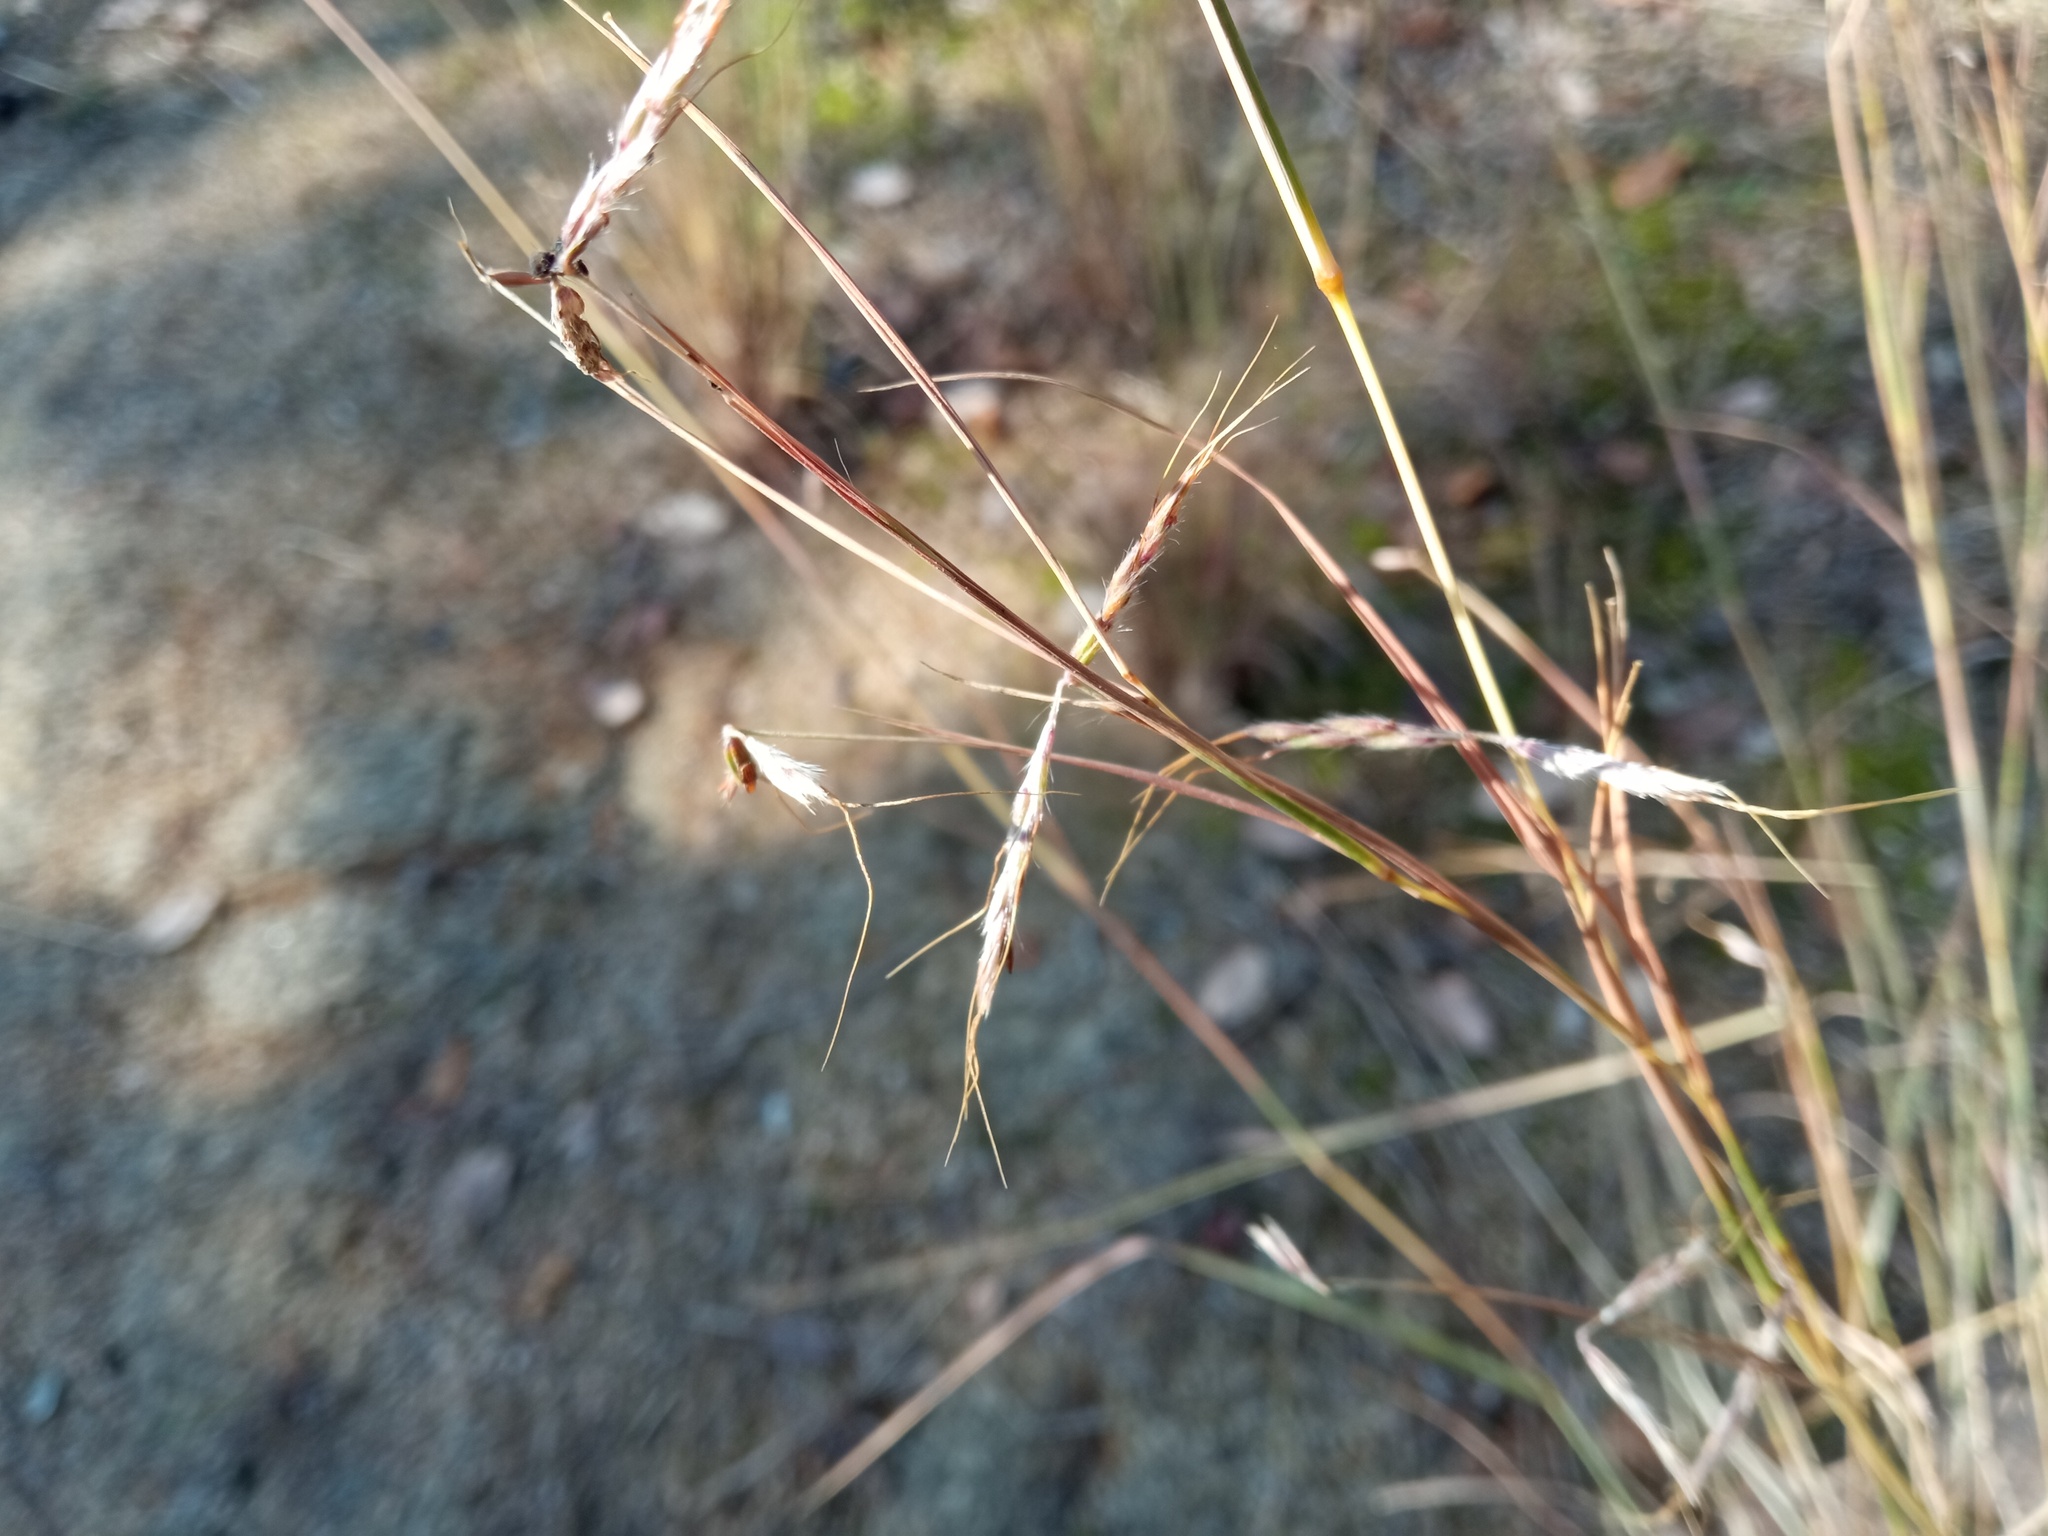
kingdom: Plantae
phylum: Tracheophyta
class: Liliopsida
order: Poales
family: Poaceae
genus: Hyparrhenia
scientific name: Hyparrhenia hirta
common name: Thatching grass
